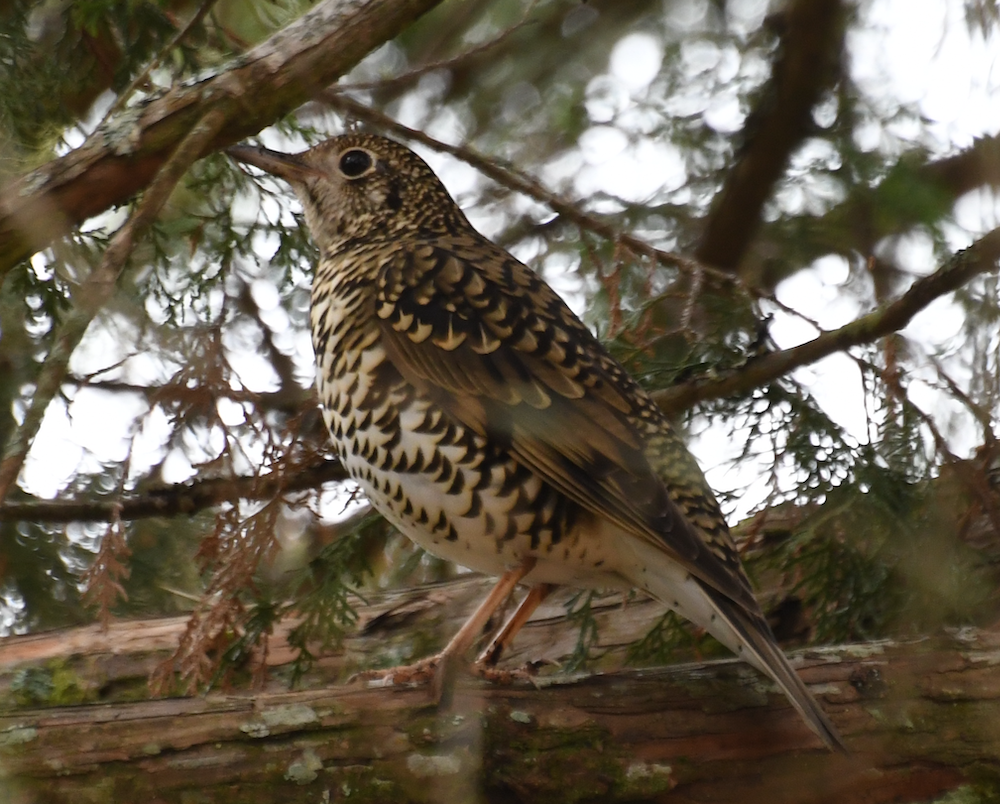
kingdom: Animalia
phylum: Chordata
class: Aves
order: Passeriformes
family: Turdidae
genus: Zoothera
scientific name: Zoothera aurea
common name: White's thrush
